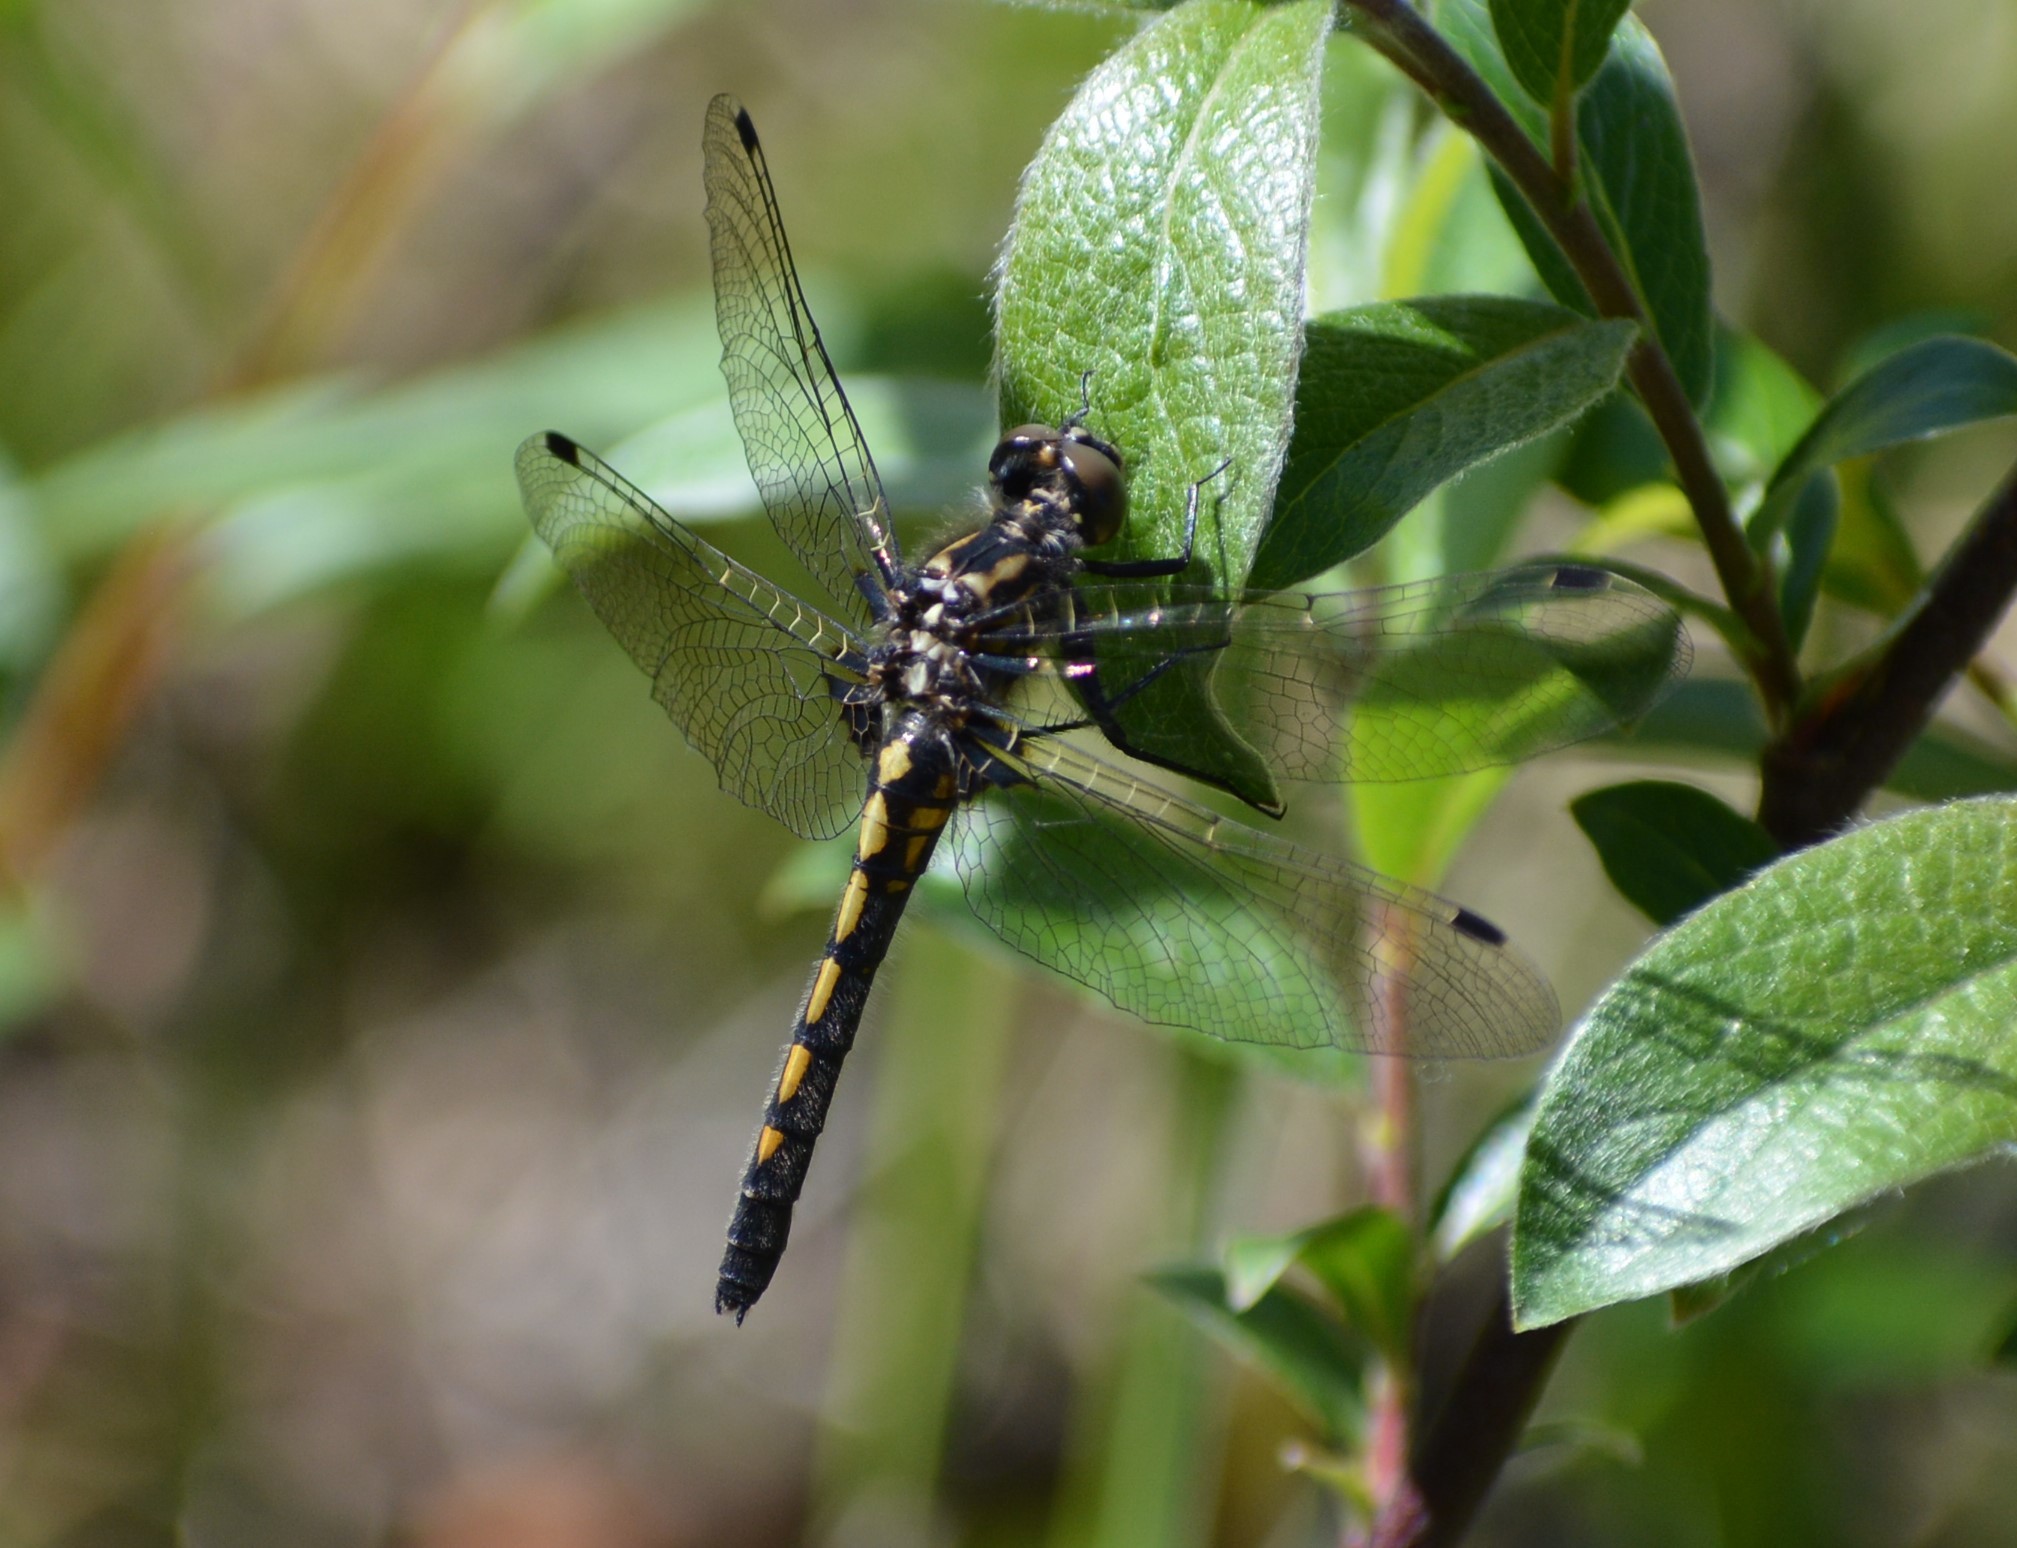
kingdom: Animalia
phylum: Arthropoda
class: Insecta
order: Odonata
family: Libellulidae
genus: Leucorrhinia
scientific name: Leucorrhinia hudsonica
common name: Hudsonian whiteface
